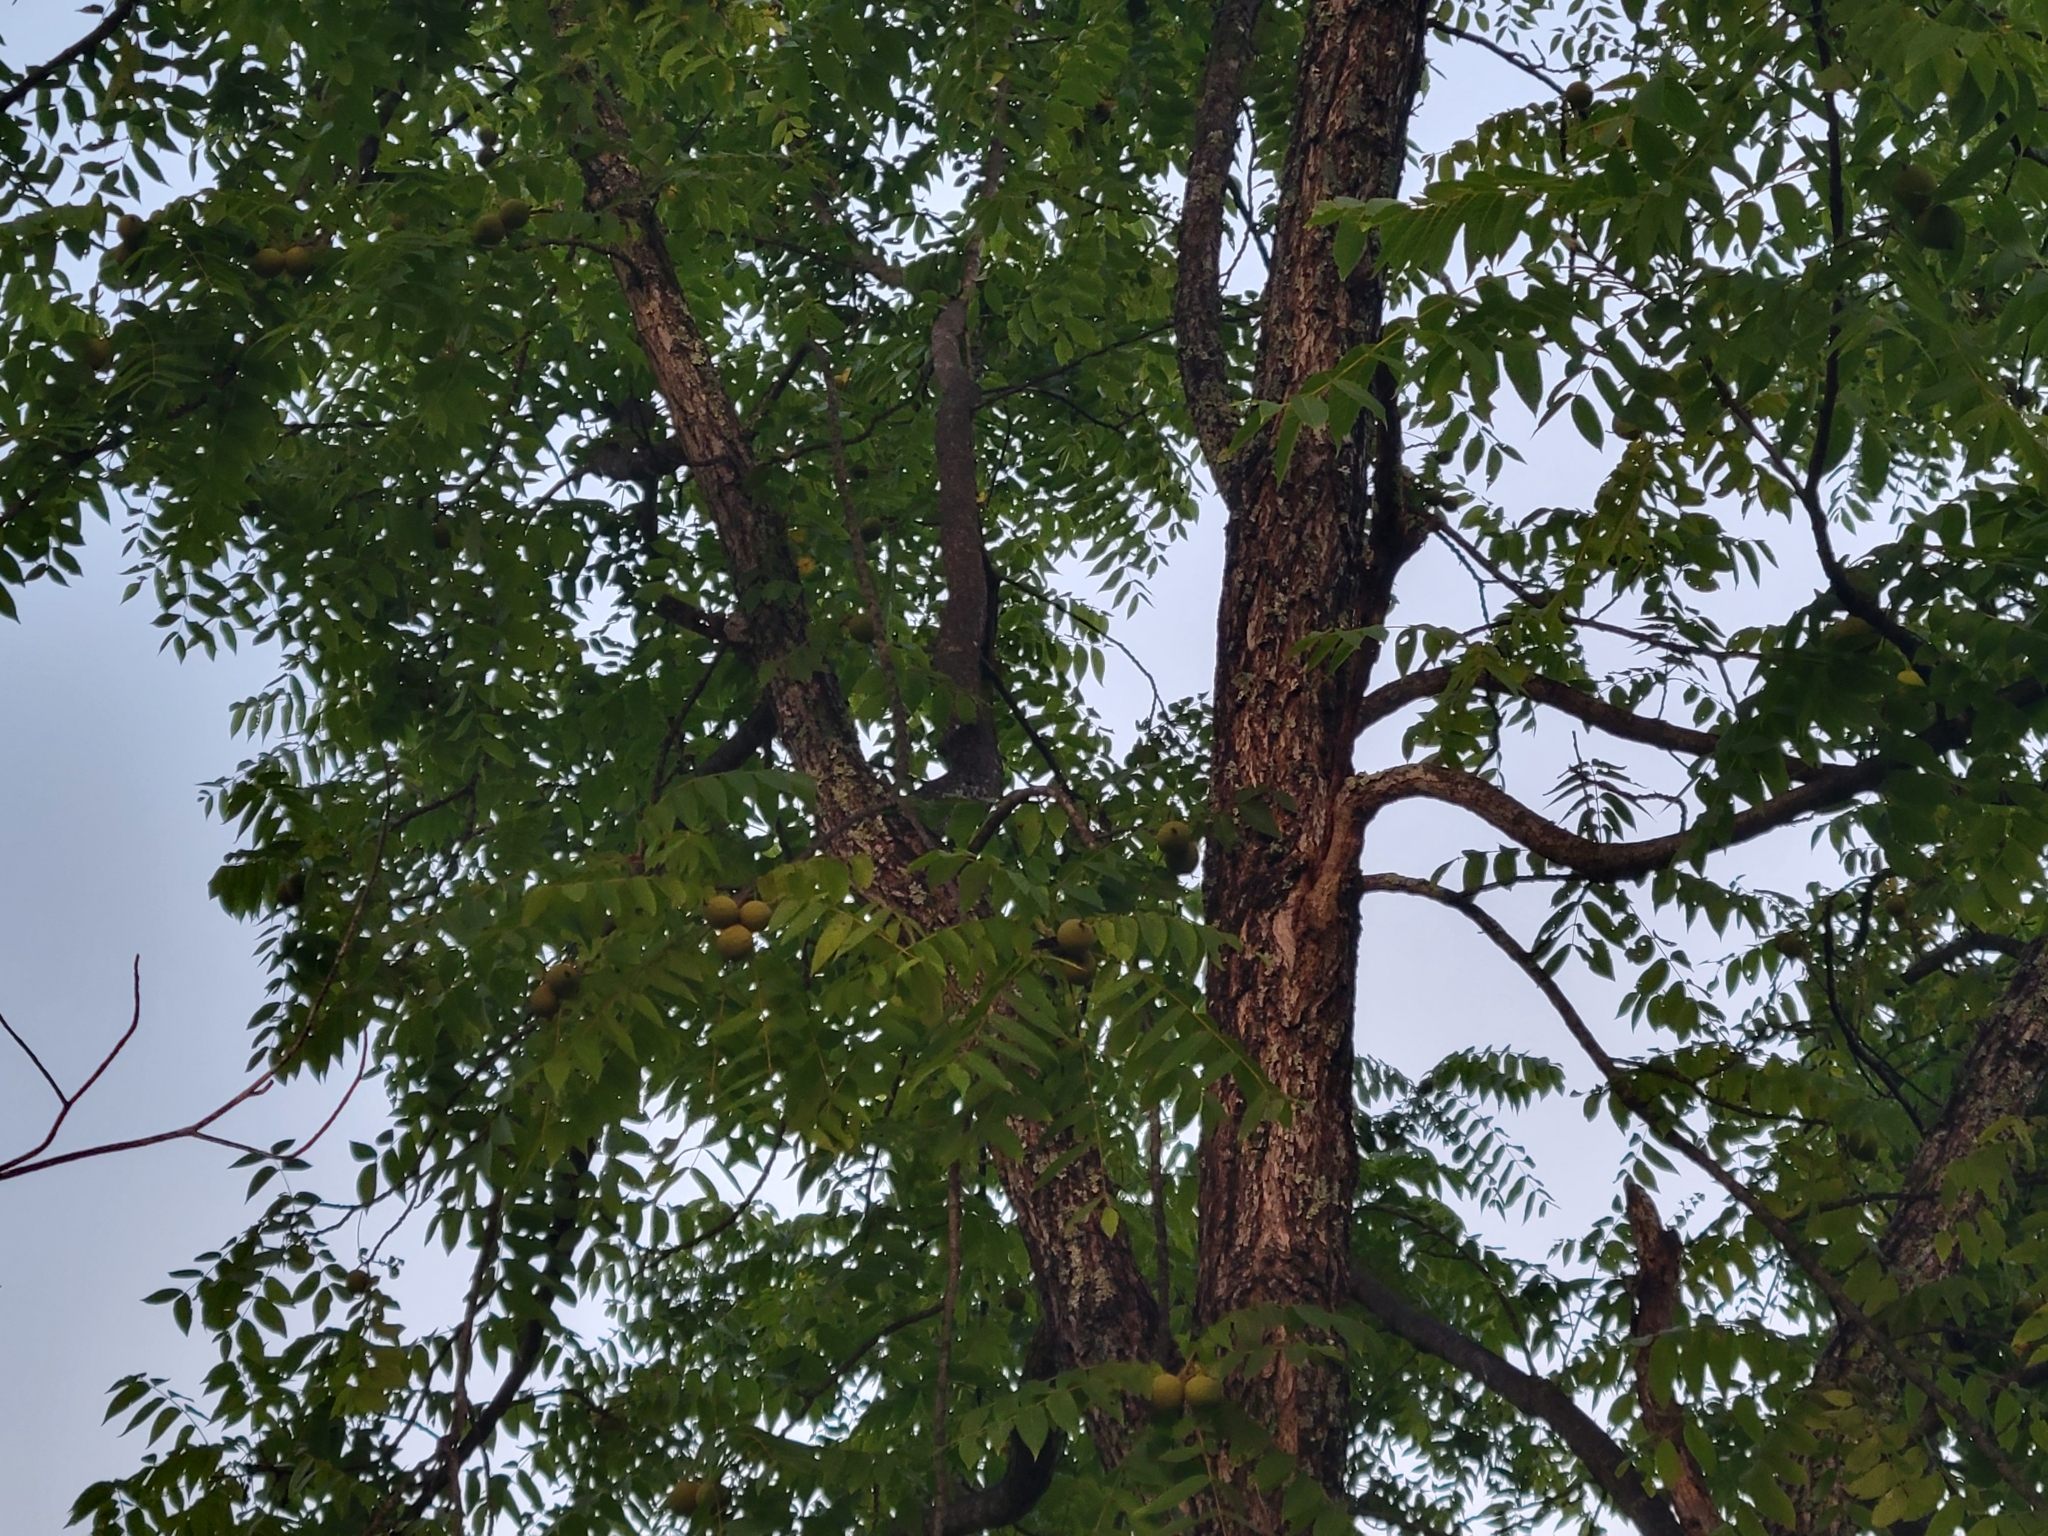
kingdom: Plantae
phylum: Tracheophyta
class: Magnoliopsida
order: Fagales
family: Juglandaceae
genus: Juglans
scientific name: Juglans nigra
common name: Black walnut
